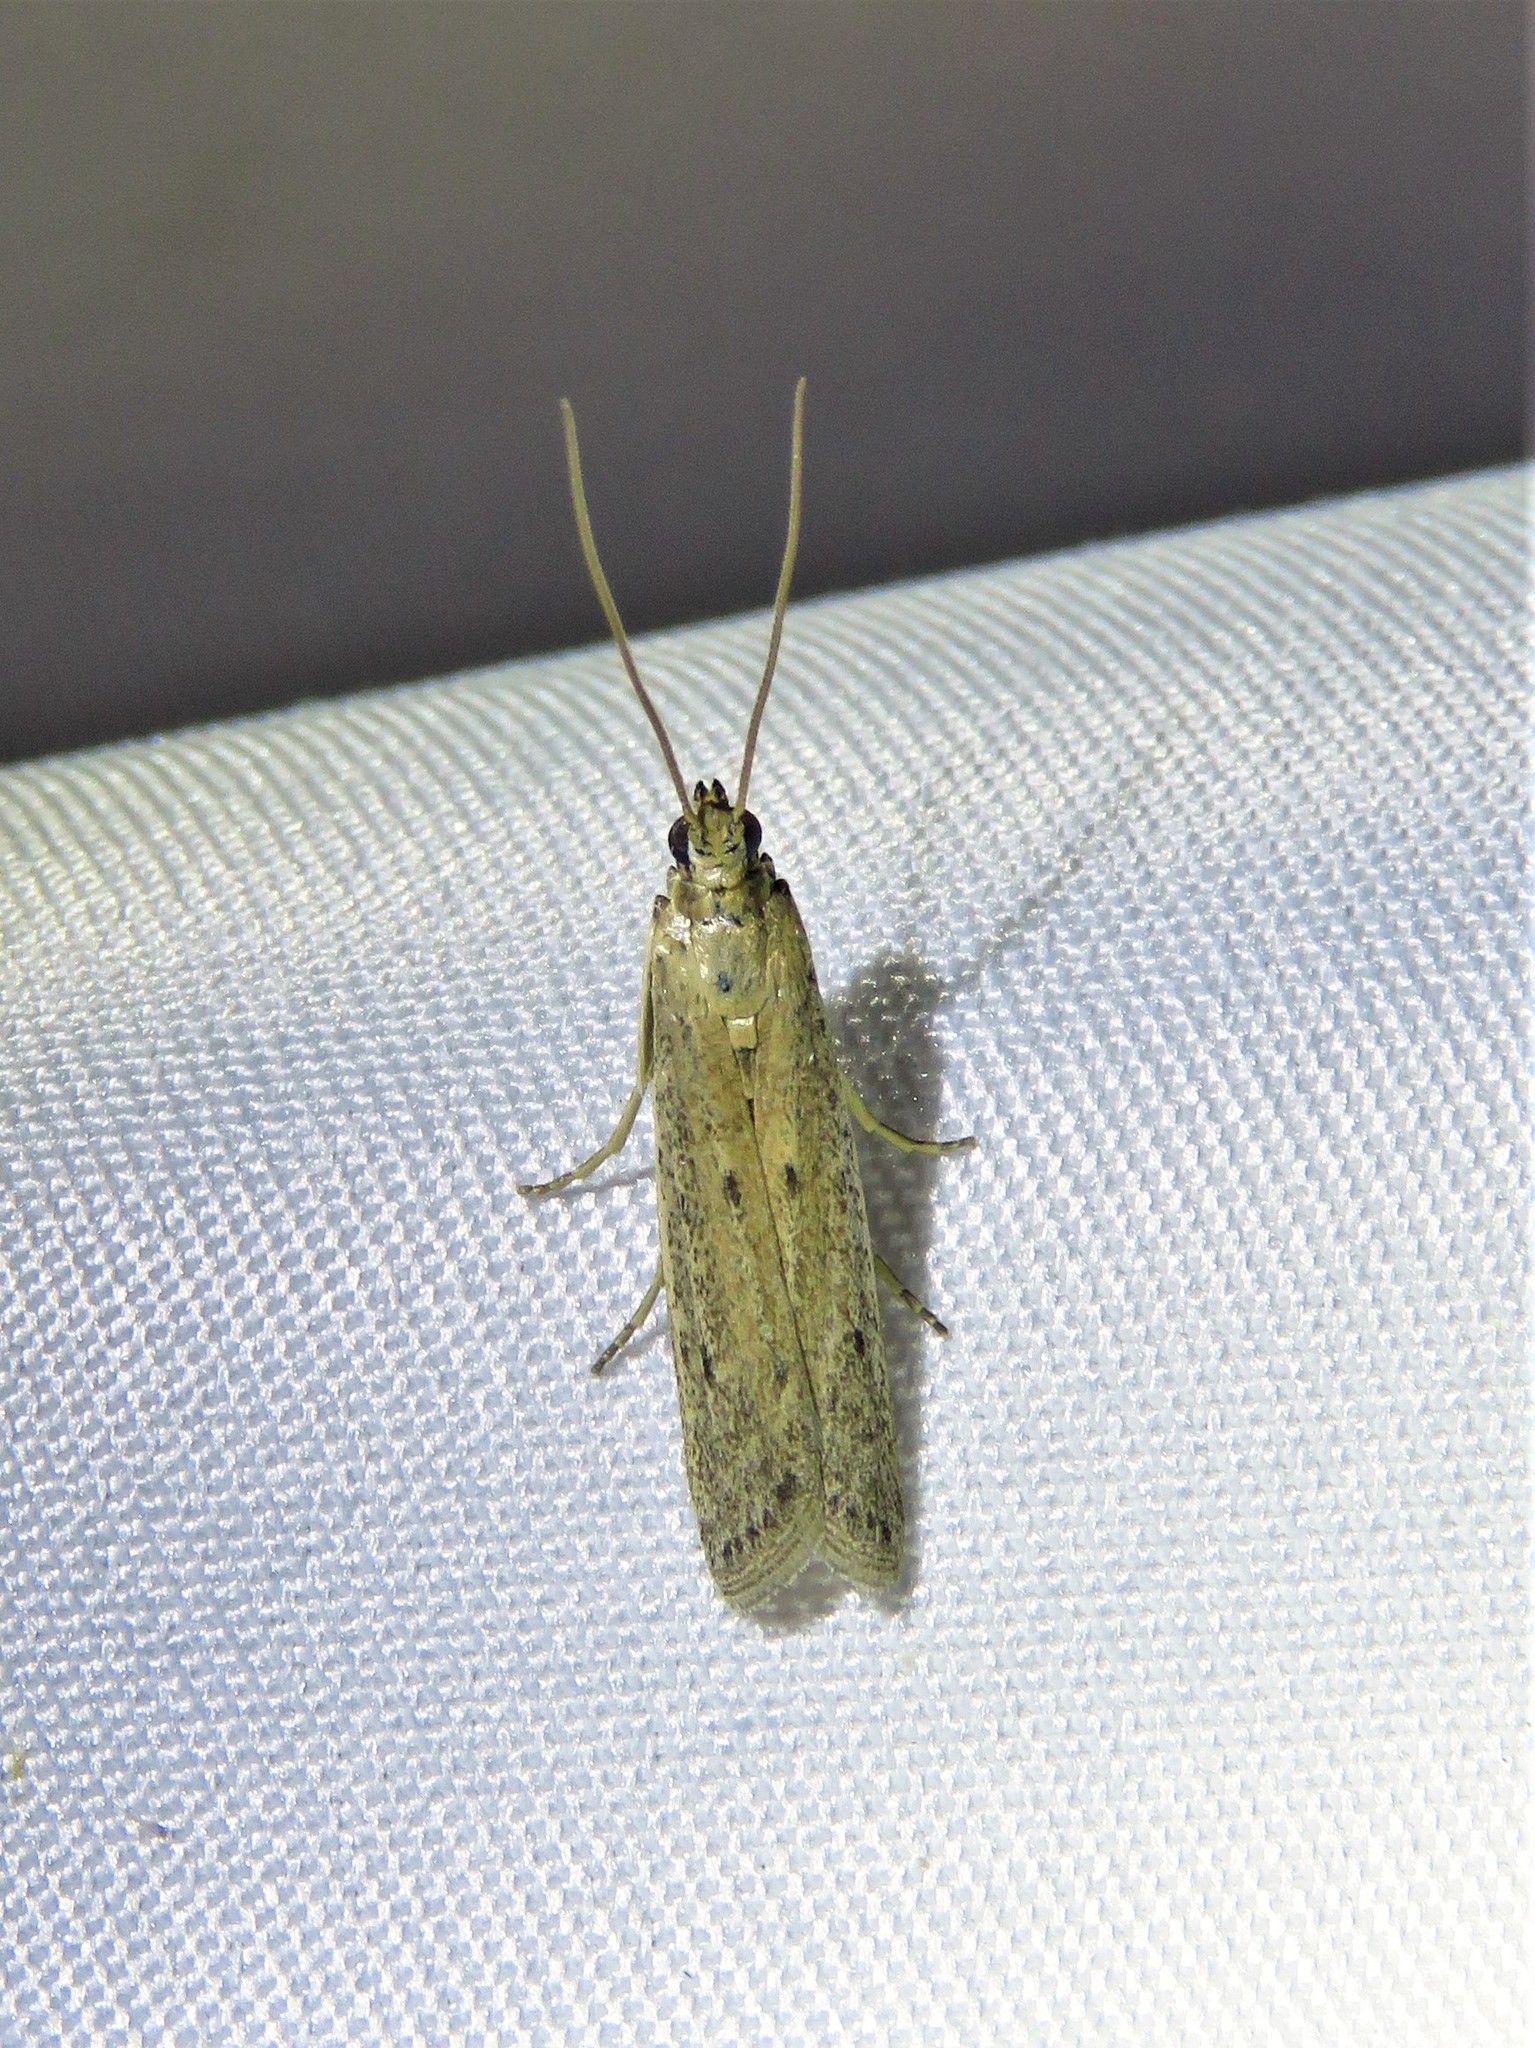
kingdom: Animalia
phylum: Arthropoda
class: Insecta
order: Lepidoptera
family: Pyralidae
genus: Homoeosoma
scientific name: Homoeosoma electella
